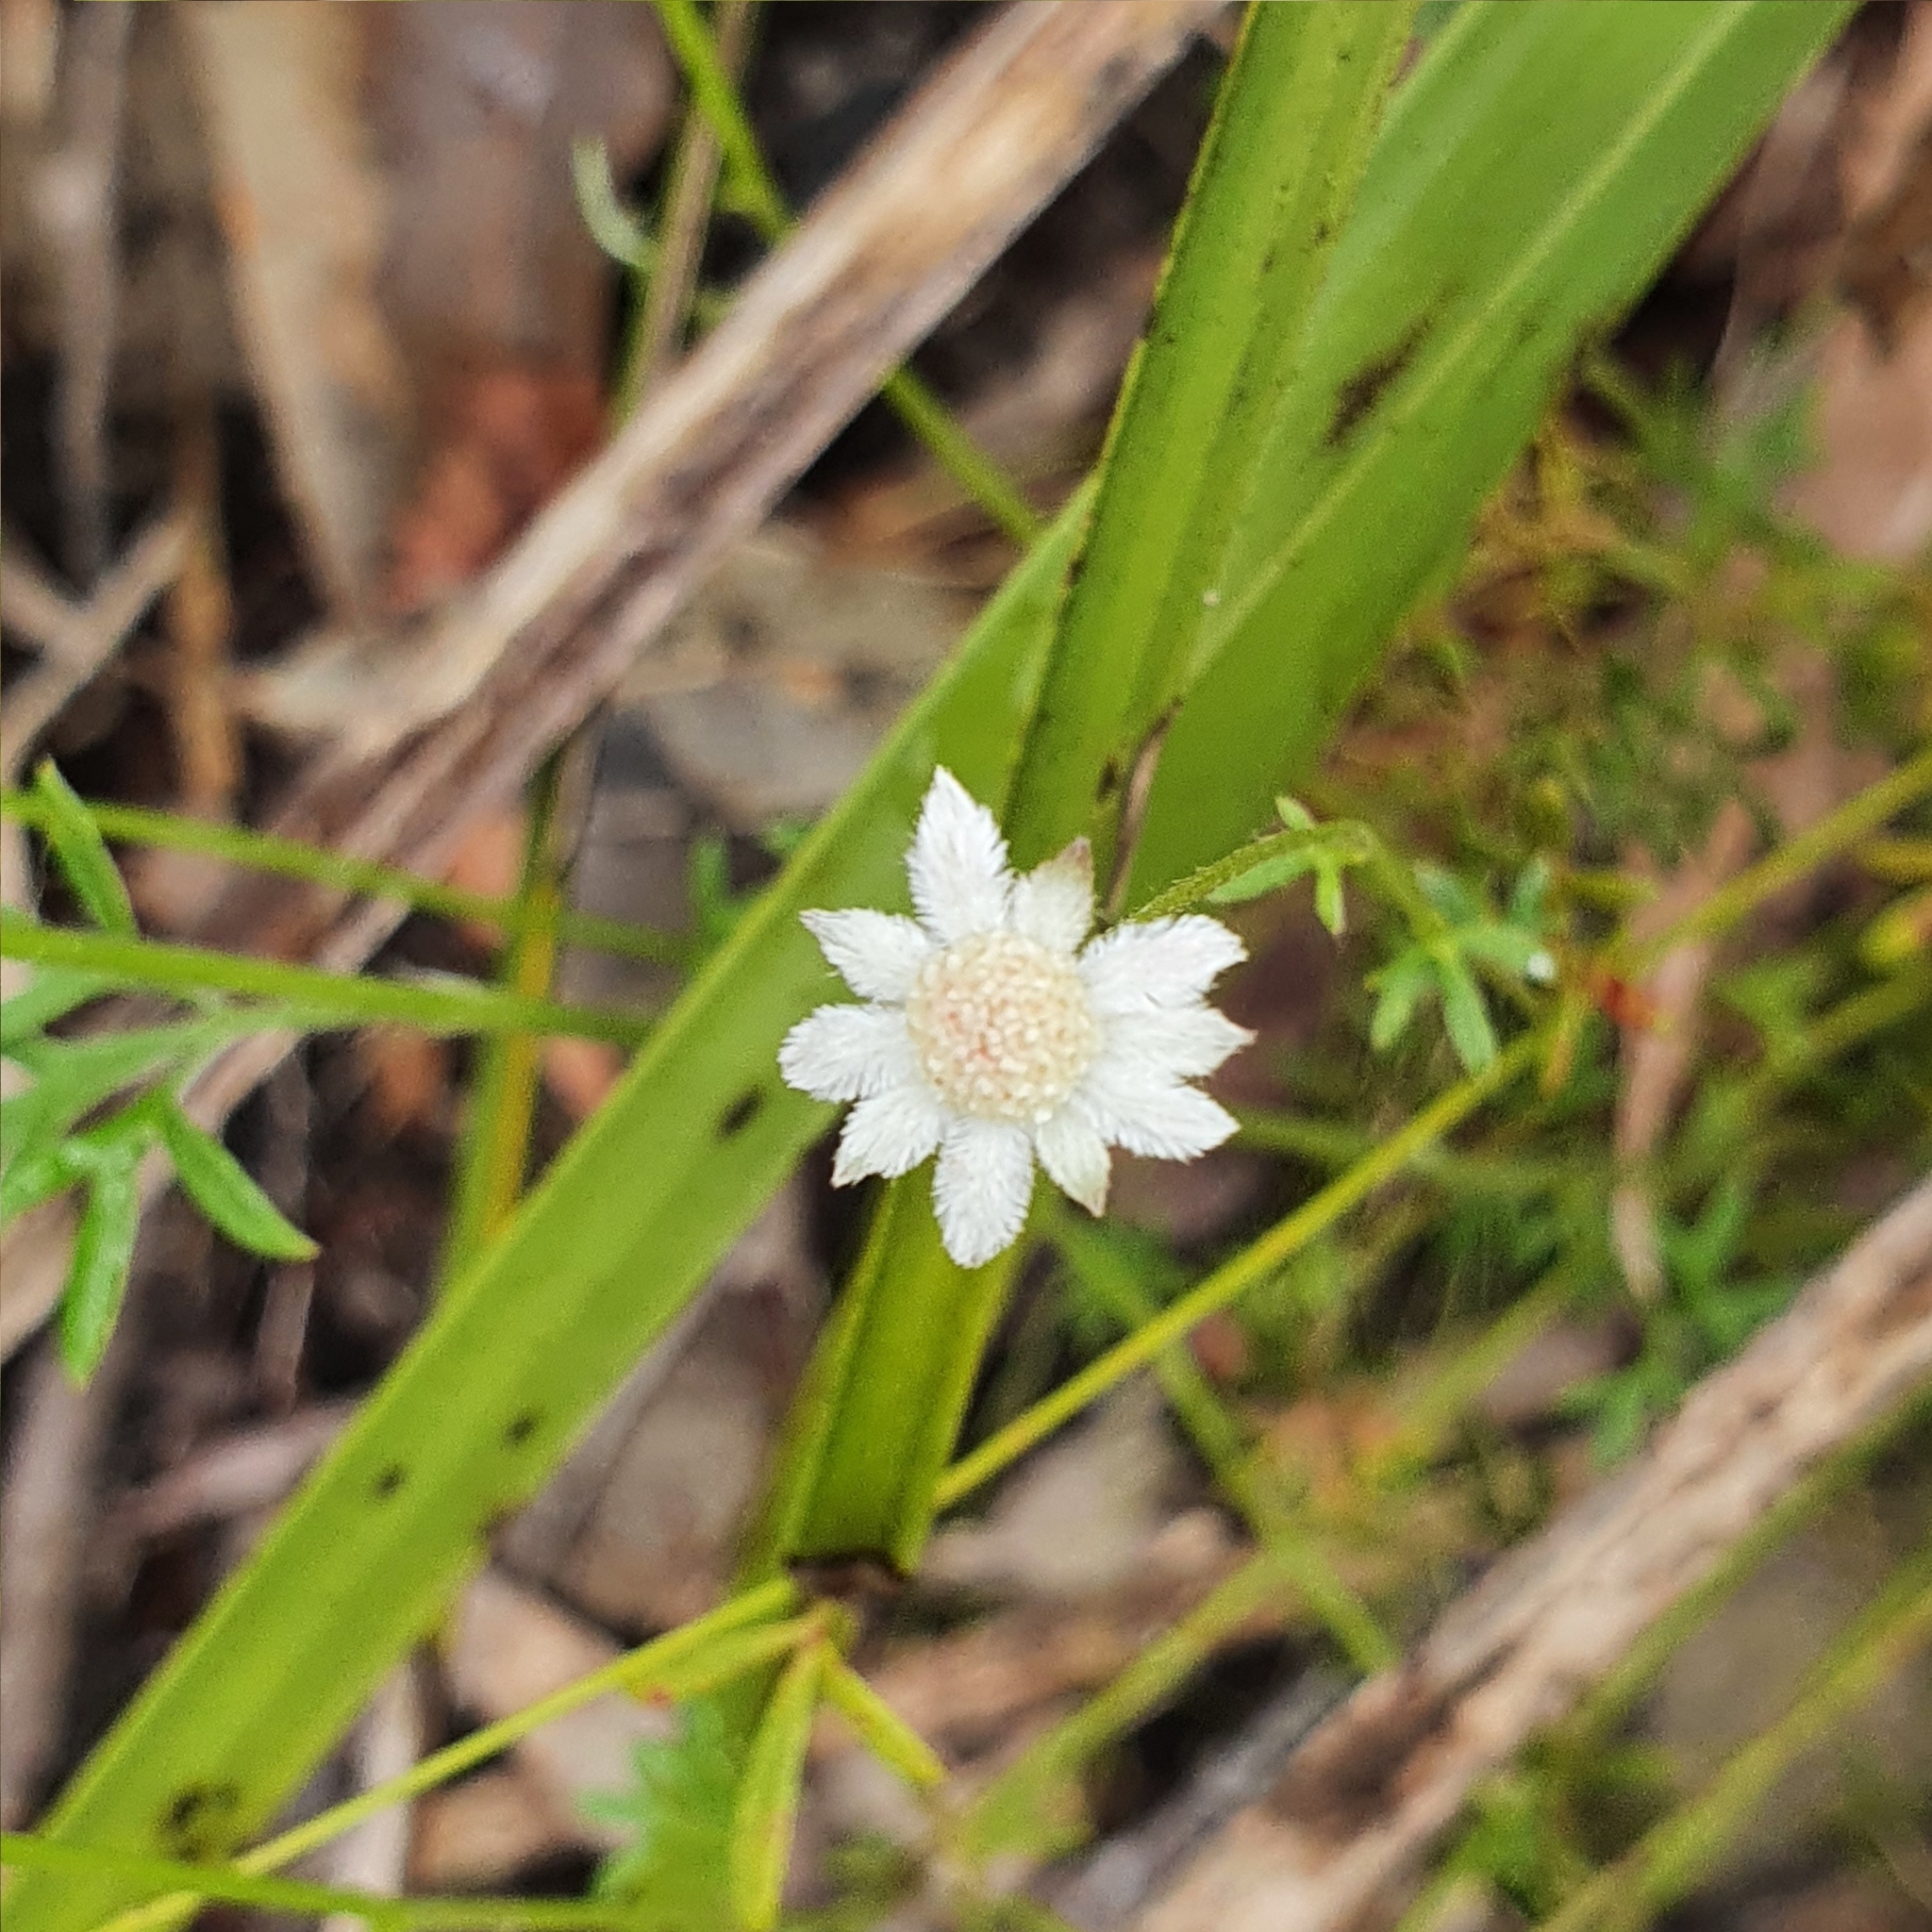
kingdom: Plantae
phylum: Tracheophyta
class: Magnoliopsida
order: Apiales
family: Apiaceae
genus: Actinotus
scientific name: Actinotus minor
